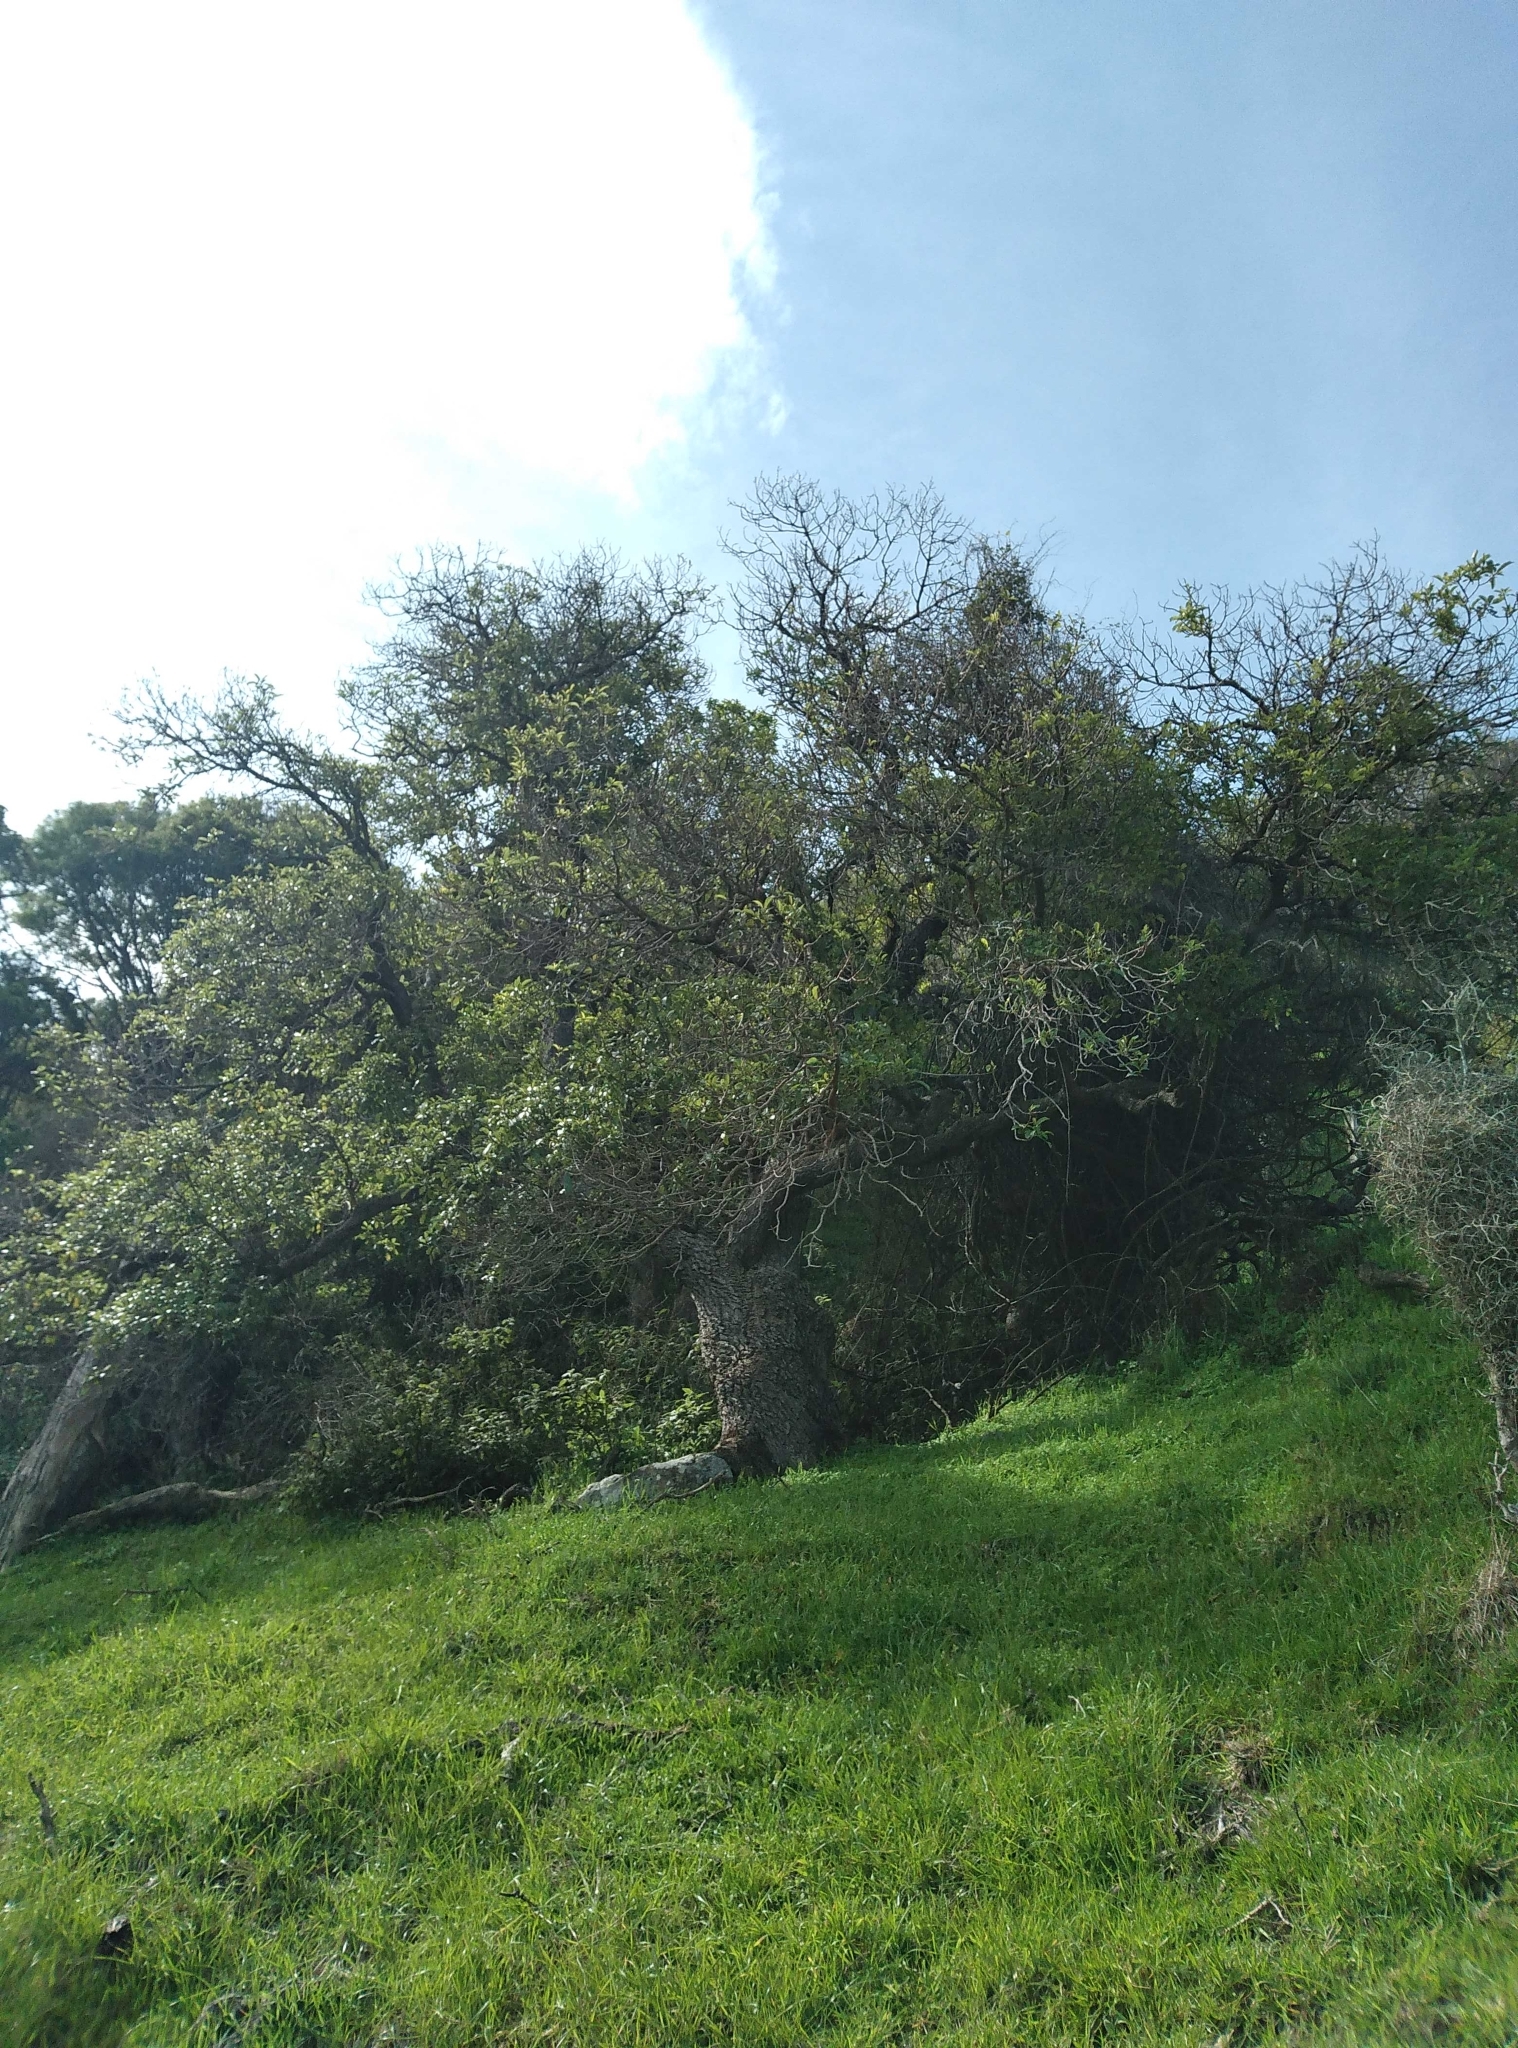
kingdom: Plantae
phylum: Tracheophyta
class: Magnoliopsida
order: Lamiales
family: Scrophulariaceae
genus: Myoporum
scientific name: Myoporum laetum
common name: Ngaio tree
